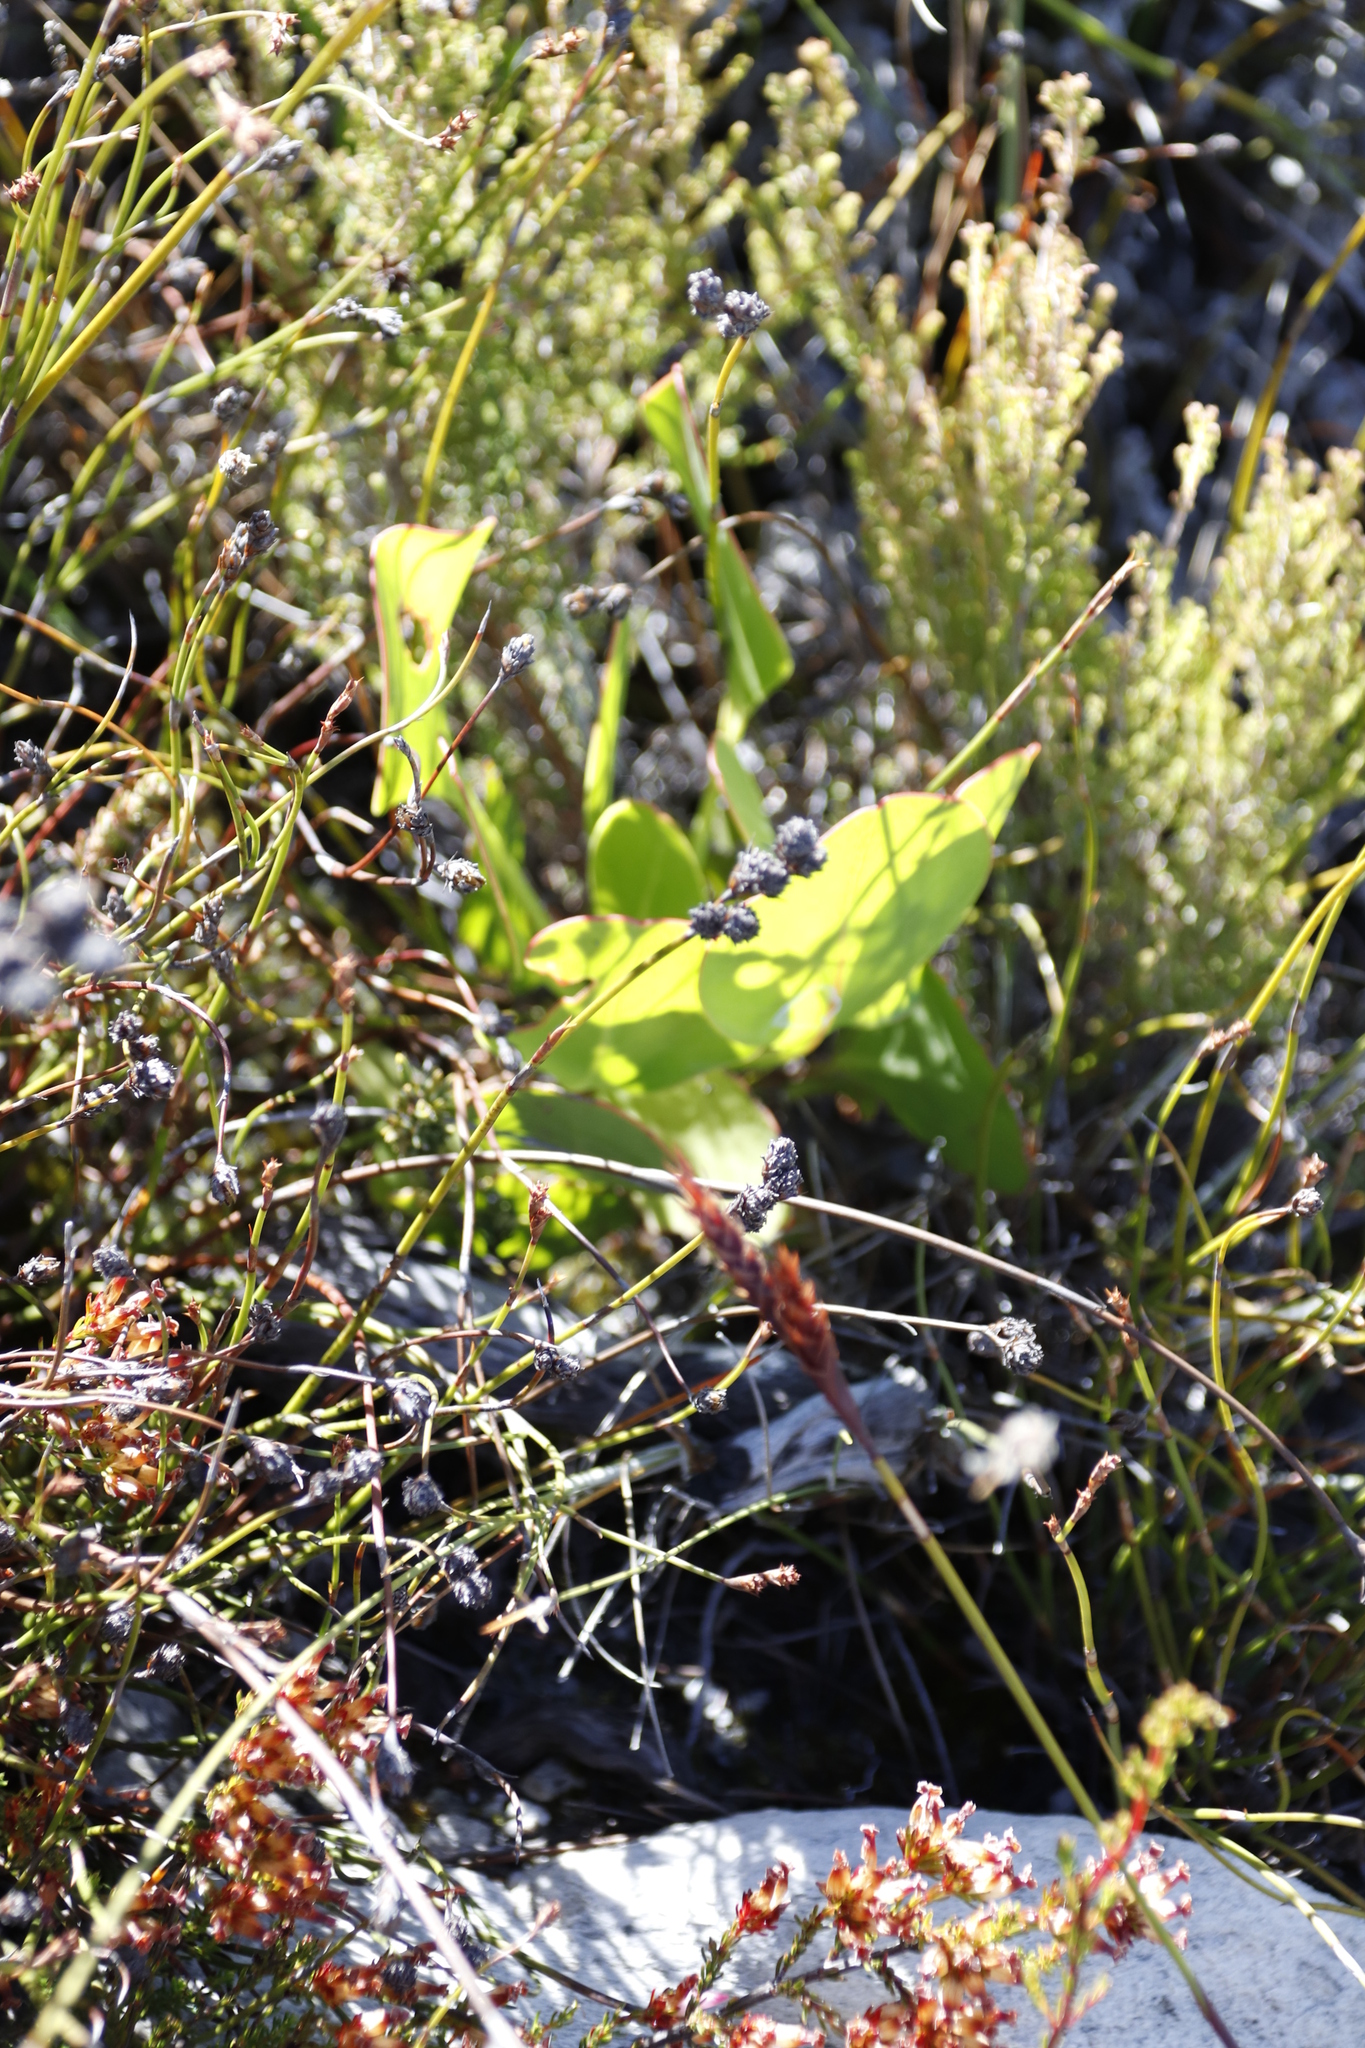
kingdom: Plantae
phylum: Tracheophyta
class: Magnoliopsida
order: Proteales
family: Proteaceae
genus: Protea
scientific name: Protea amplexicaulis
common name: Clasping-leaf sugarbush
